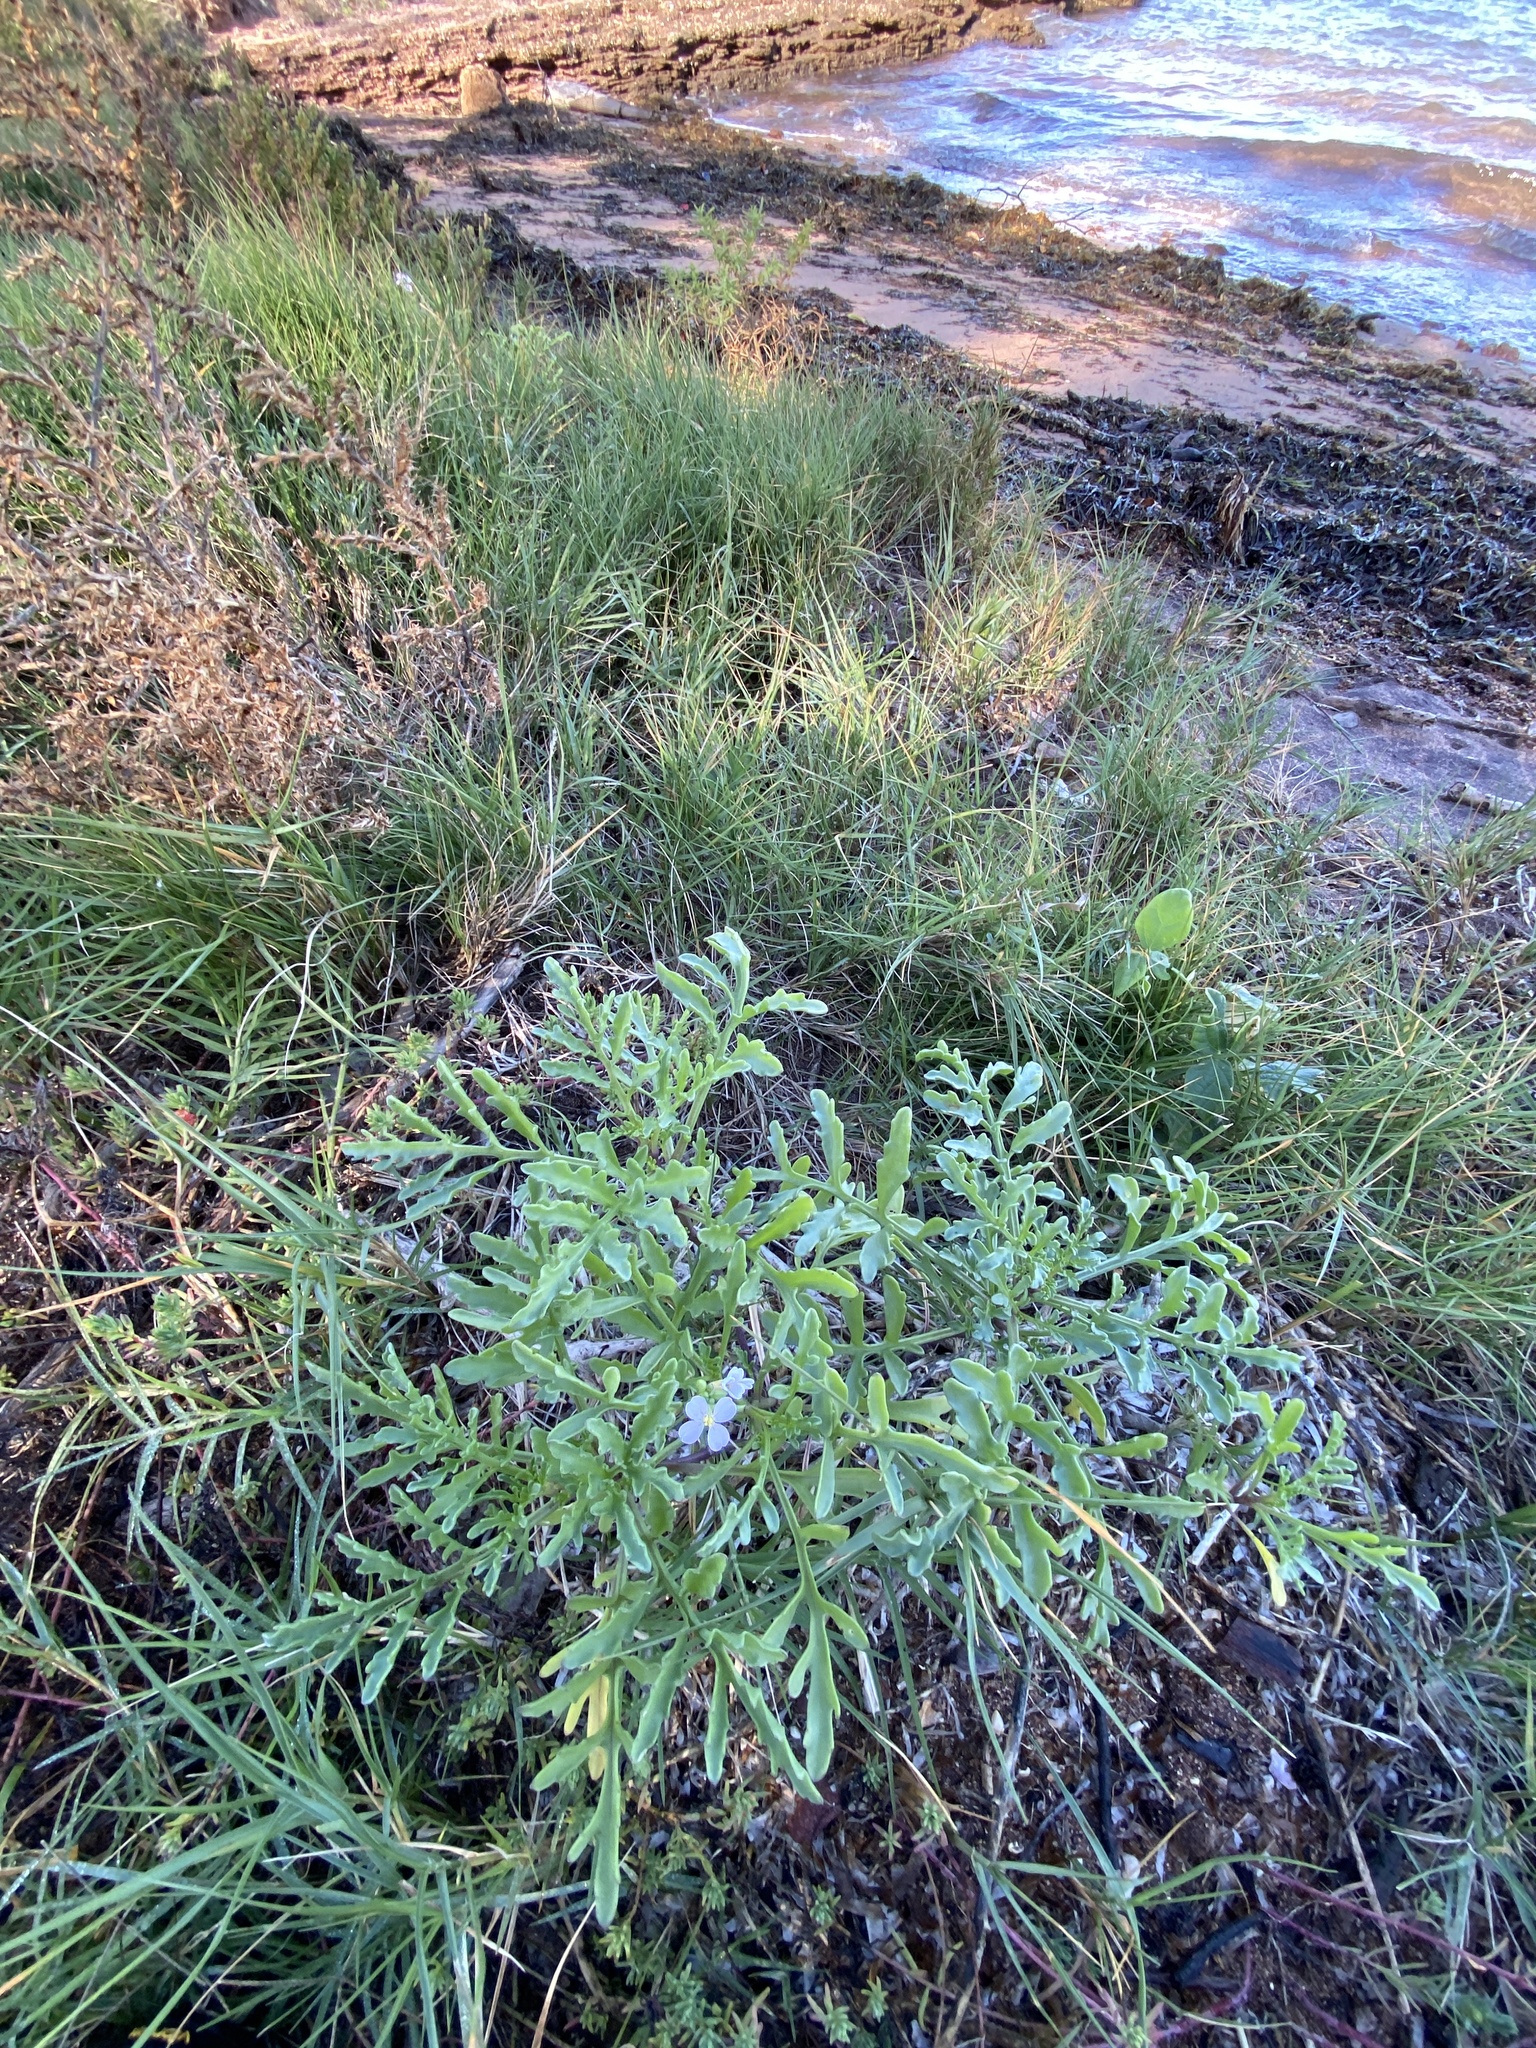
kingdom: Plantae
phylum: Tracheophyta
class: Magnoliopsida
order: Brassicales
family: Brassicaceae
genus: Cakile
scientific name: Cakile maritima
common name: Sea rocket
